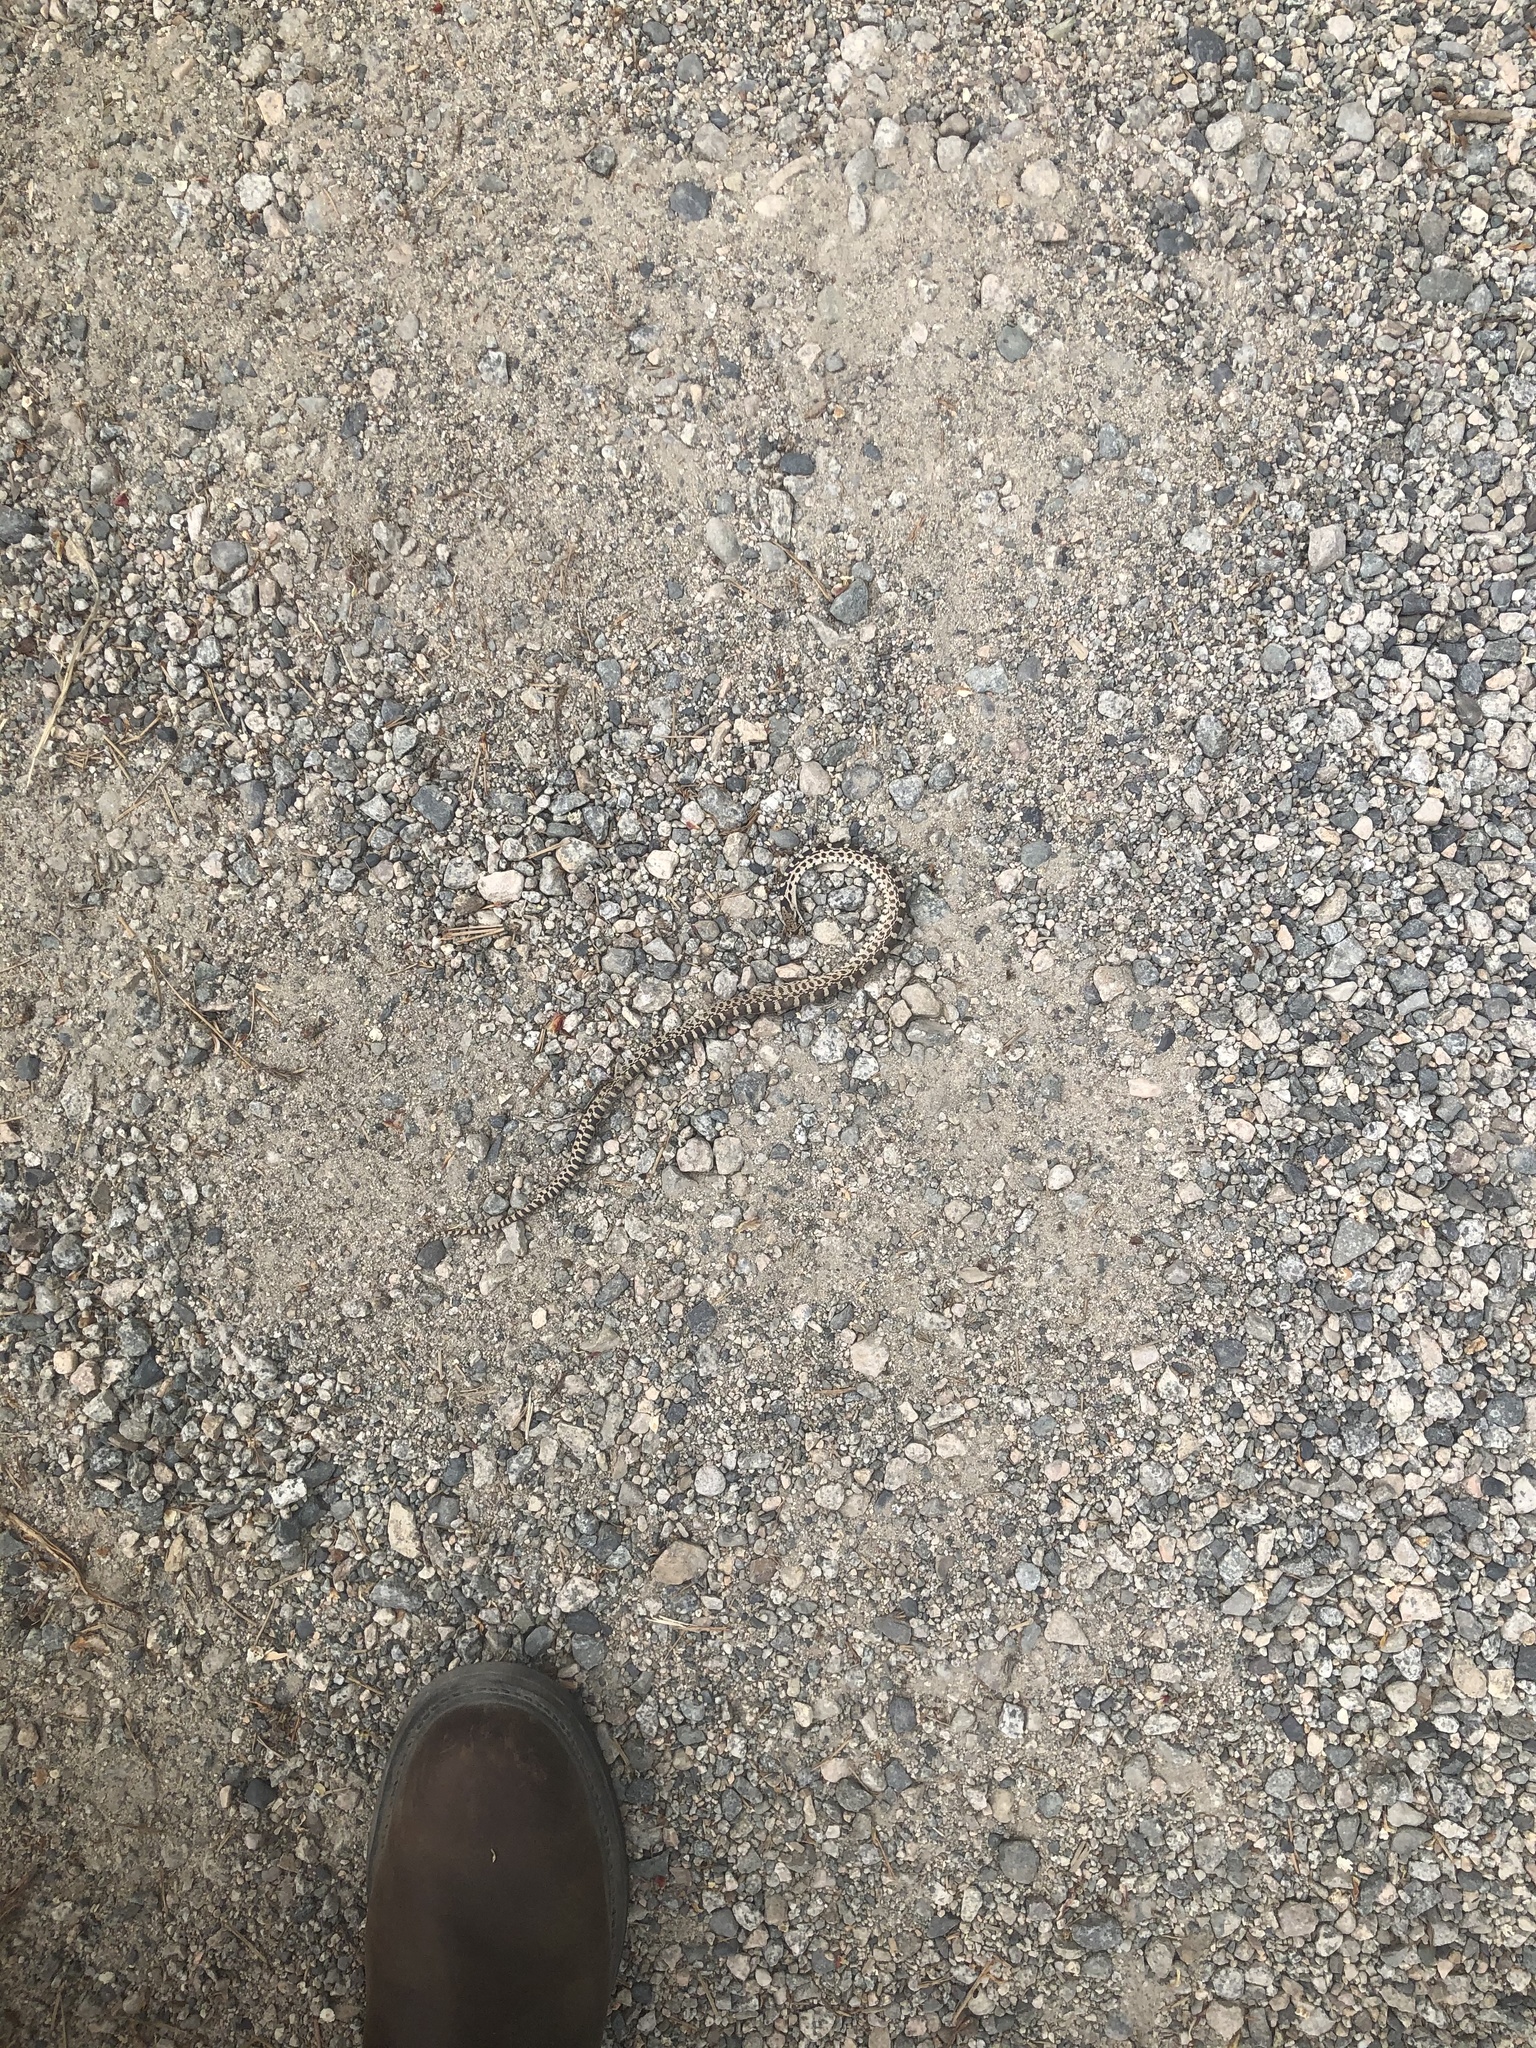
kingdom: Animalia
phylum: Chordata
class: Squamata
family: Colubridae
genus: Pituophis
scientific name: Pituophis catenifer
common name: Gopher snake
